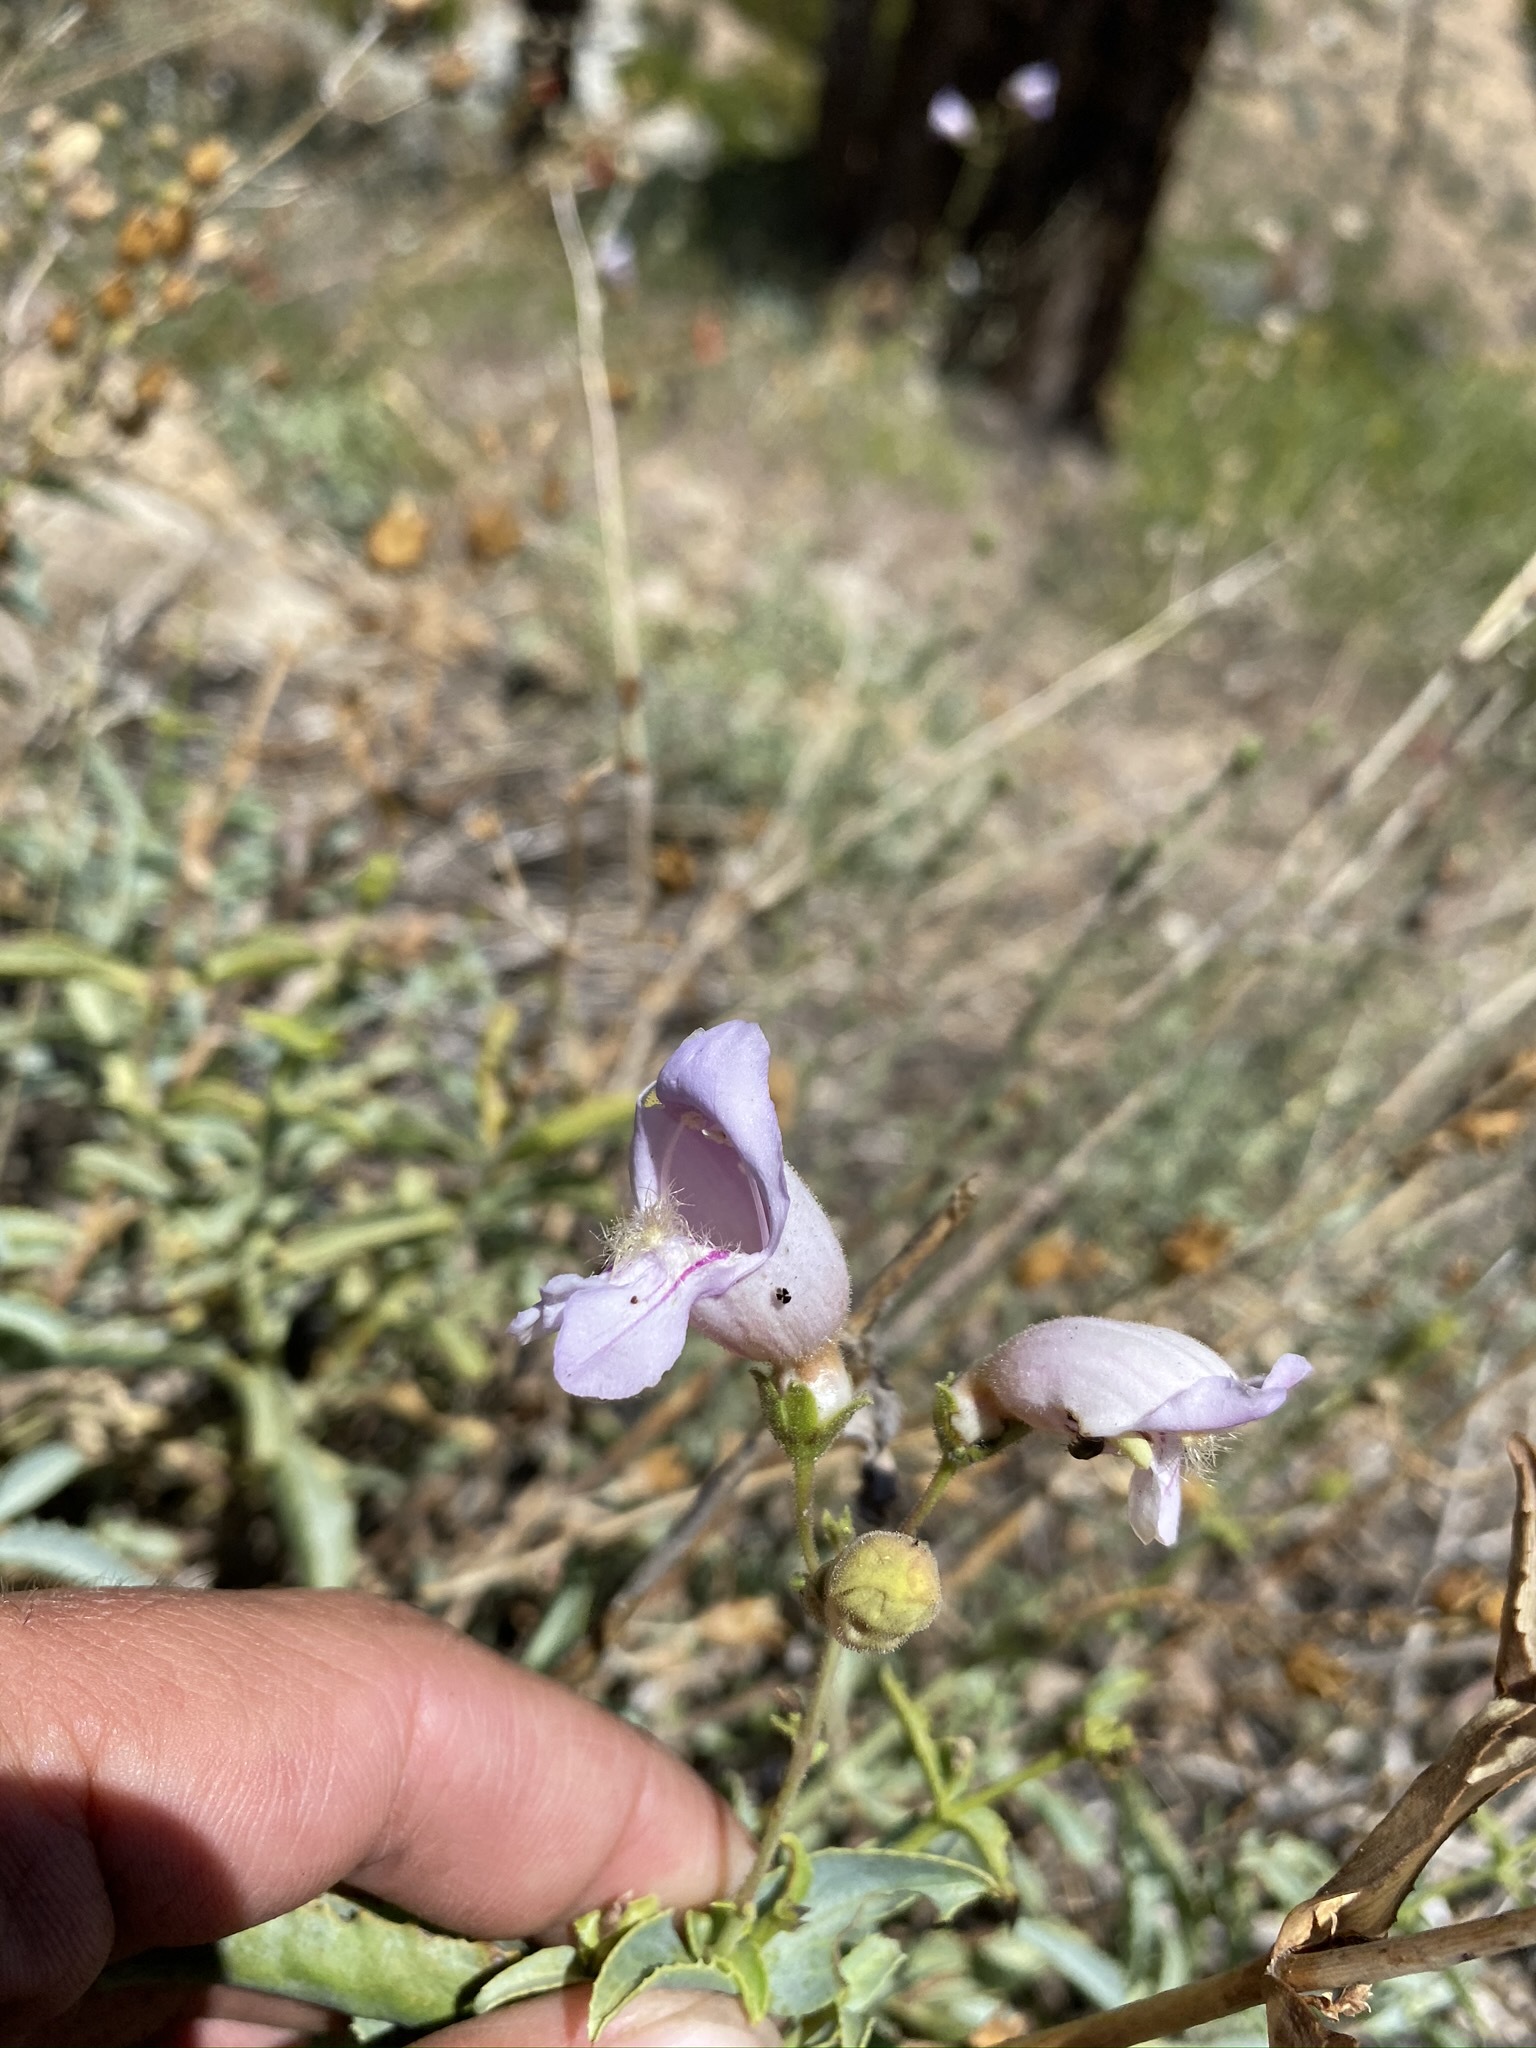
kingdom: Plantae
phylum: Tracheophyta
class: Magnoliopsida
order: Lamiales
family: Plantaginaceae
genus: Penstemon
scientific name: Penstemon grinnellii
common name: Grinnell's beardtongue
